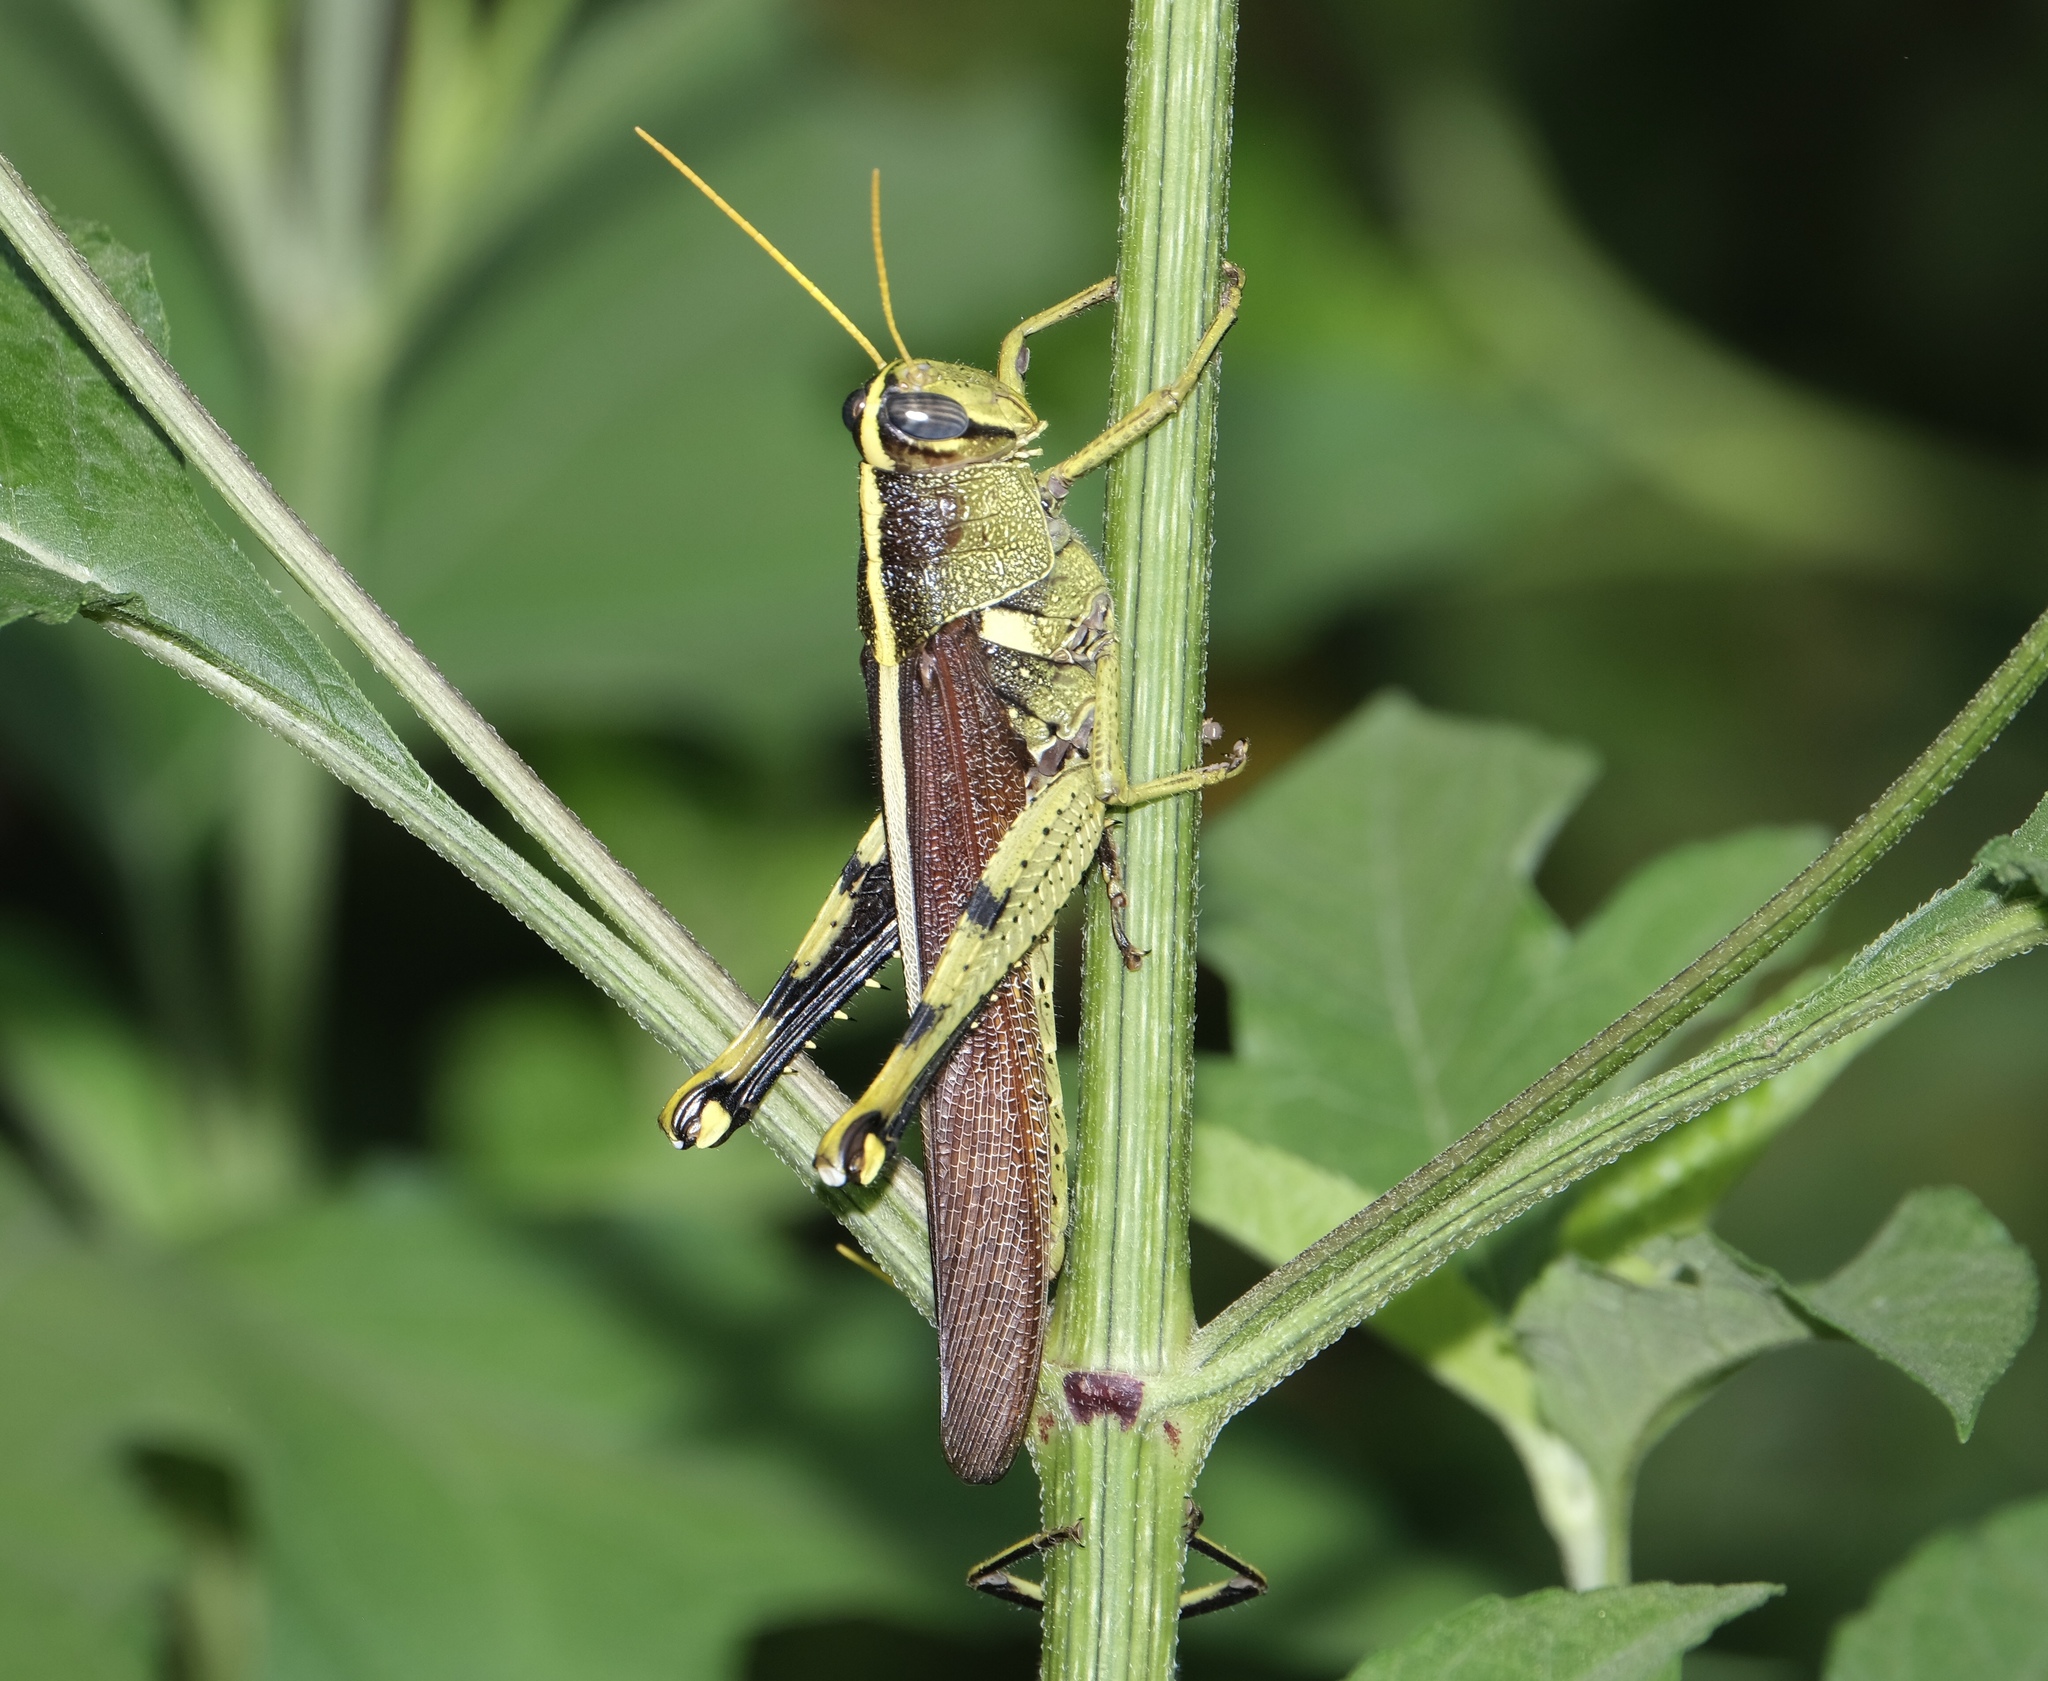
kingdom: Animalia
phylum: Arthropoda
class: Insecta
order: Orthoptera
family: Acrididae
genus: Schistocerca
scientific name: Schistocerca obscura
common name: Obscure bird grasshopper
